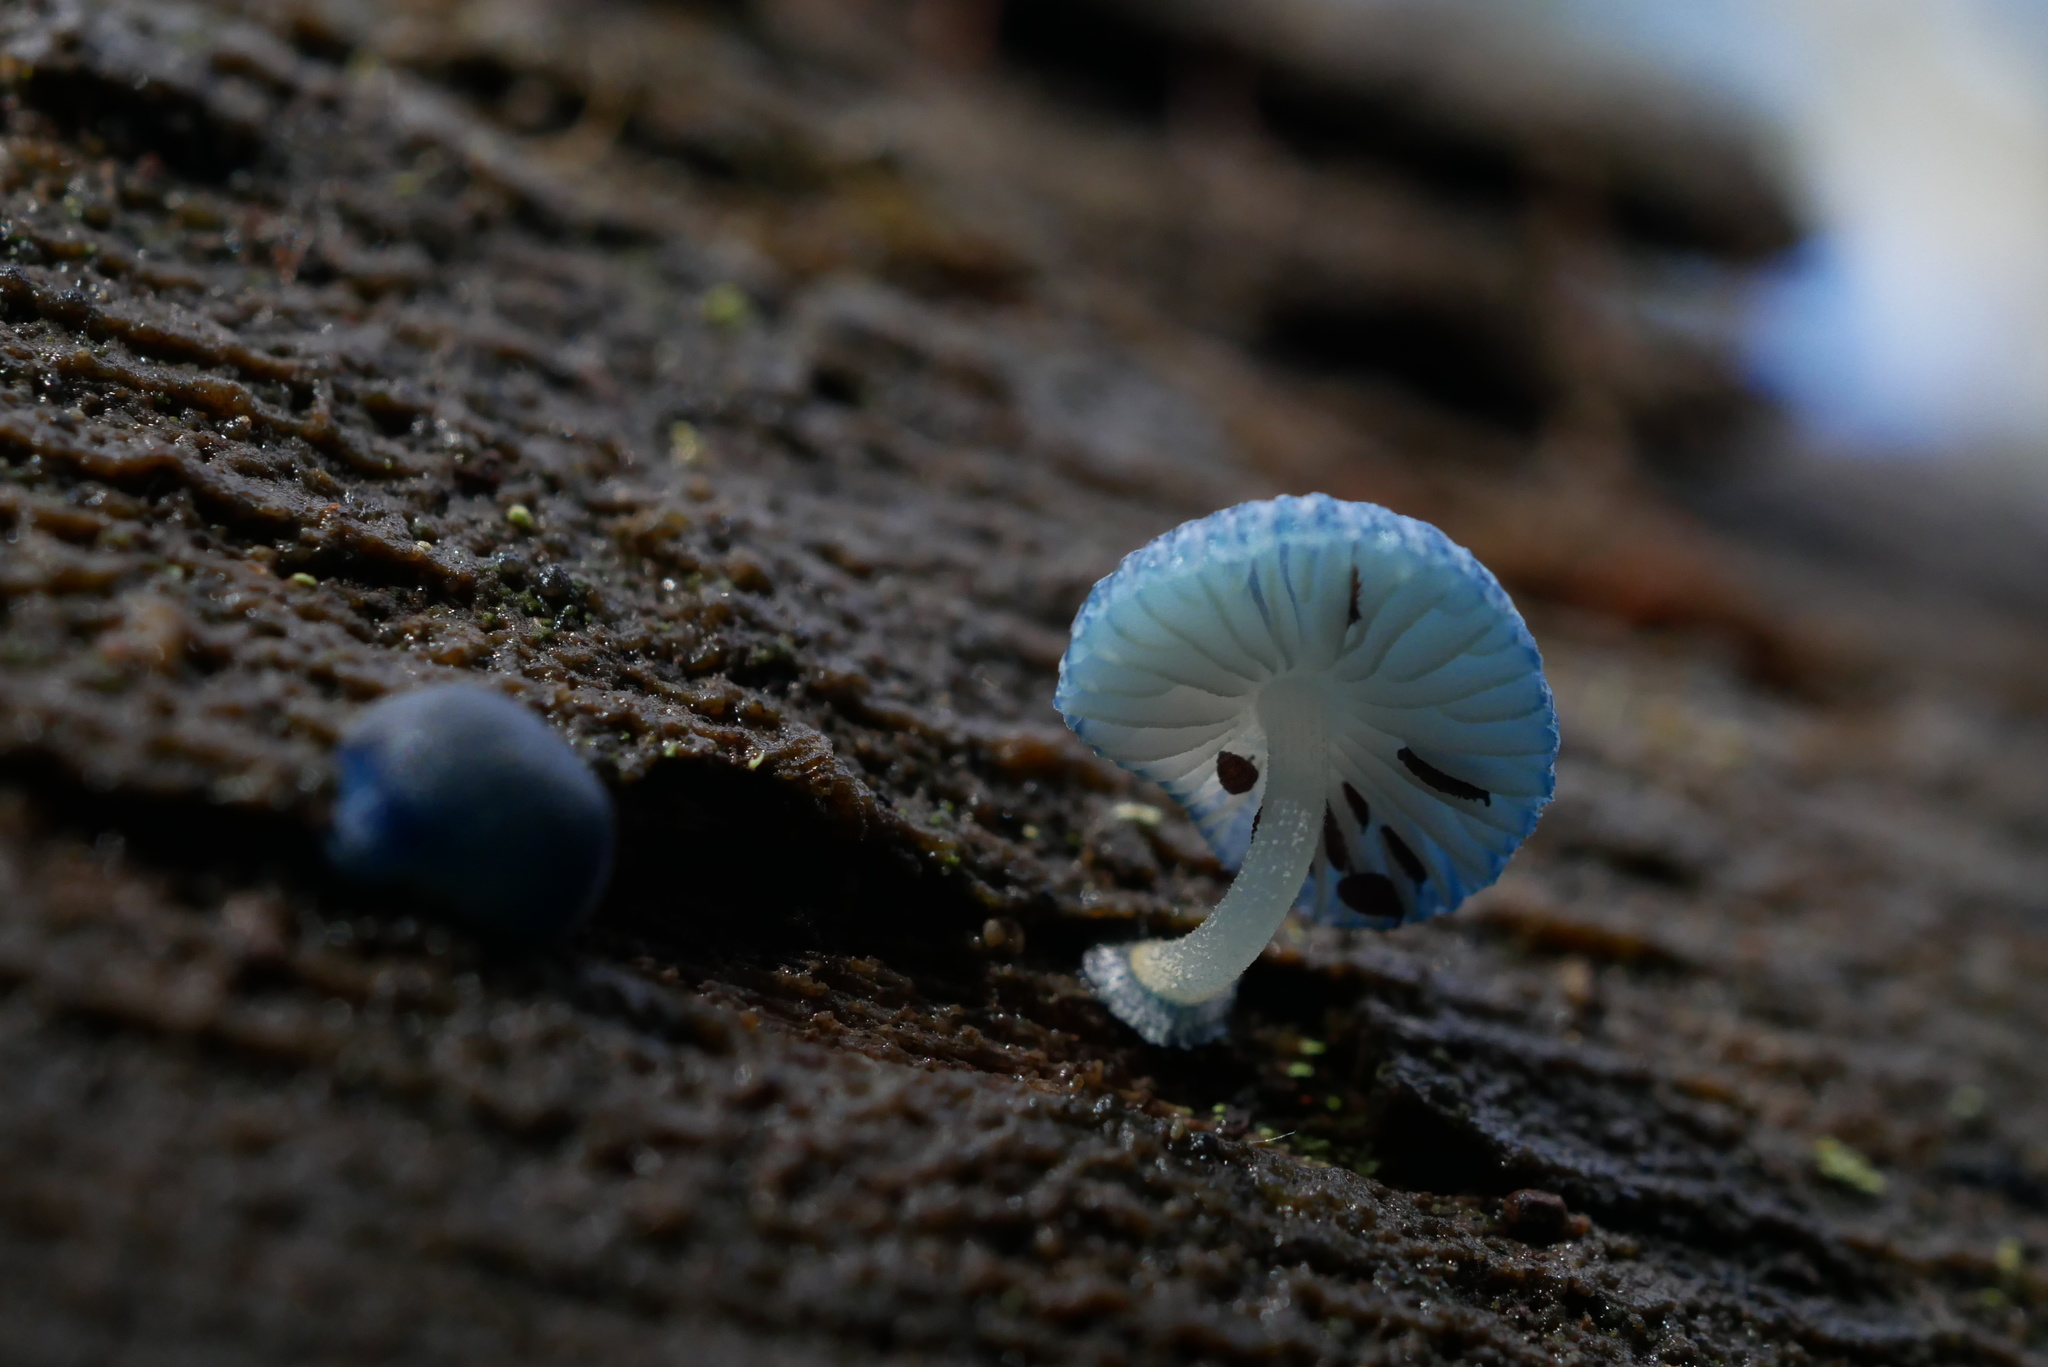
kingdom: Fungi
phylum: Basidiomycota
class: Agaricomycetes
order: Agaricales
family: Mycenaceae
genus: Mycena
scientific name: Mycena interrupta
